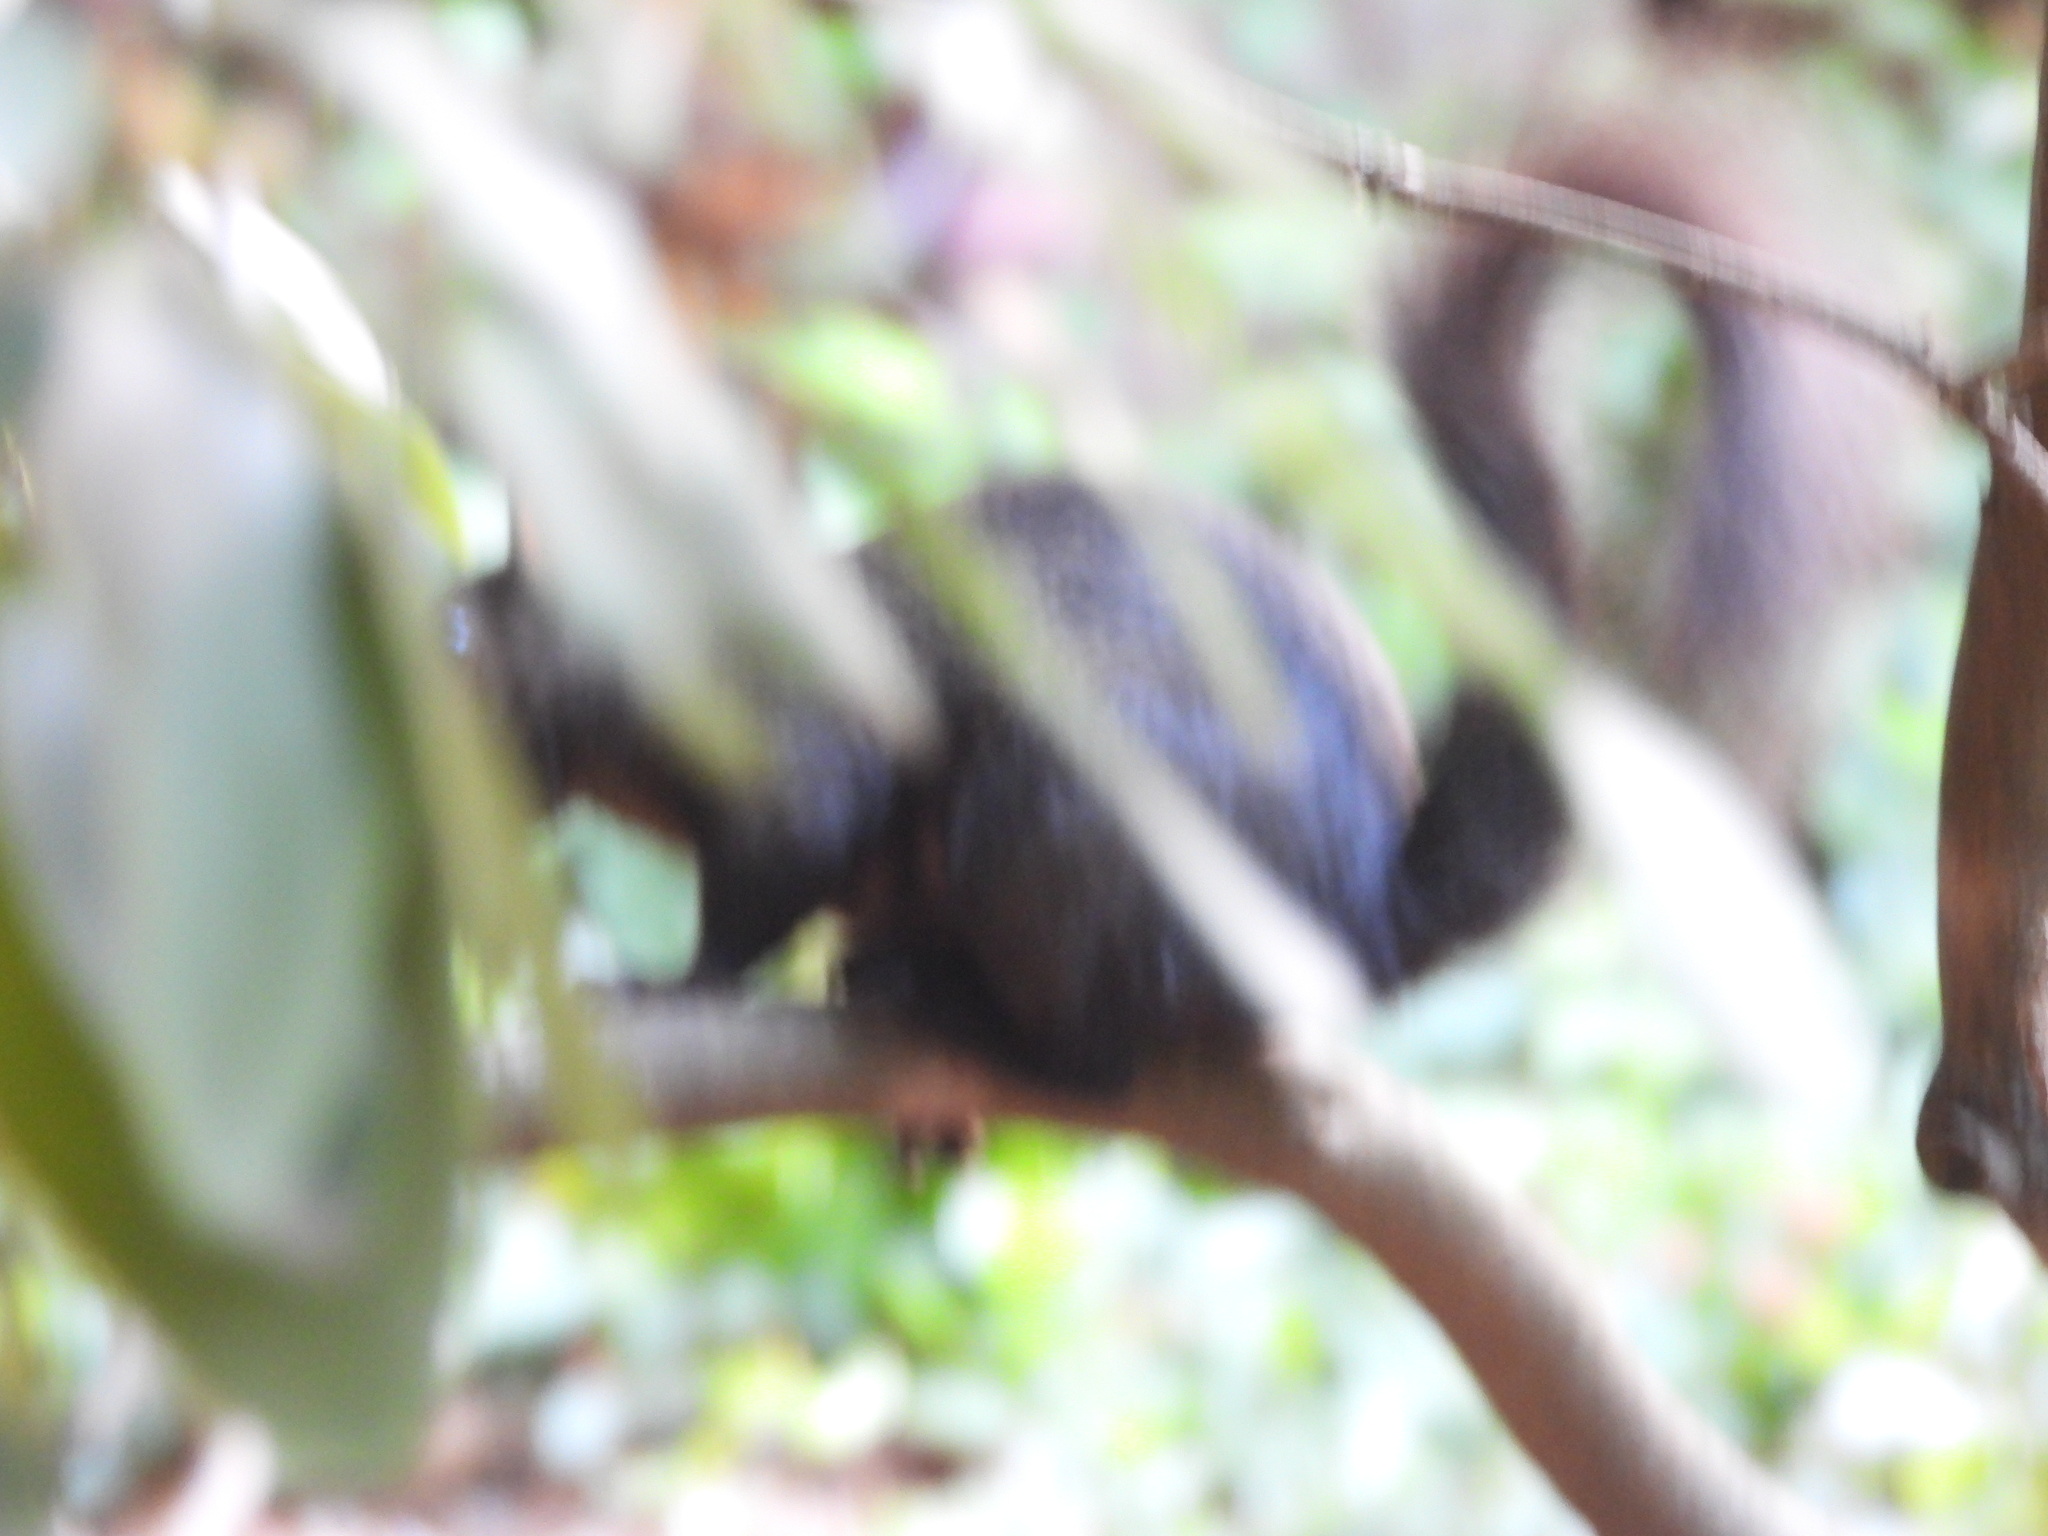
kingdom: Animalia
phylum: Chordata
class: Mammalia
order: Rodentia
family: Sciuridae
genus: Sciurus
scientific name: Sciurus carolinensis
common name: Eastern gray squirrel
